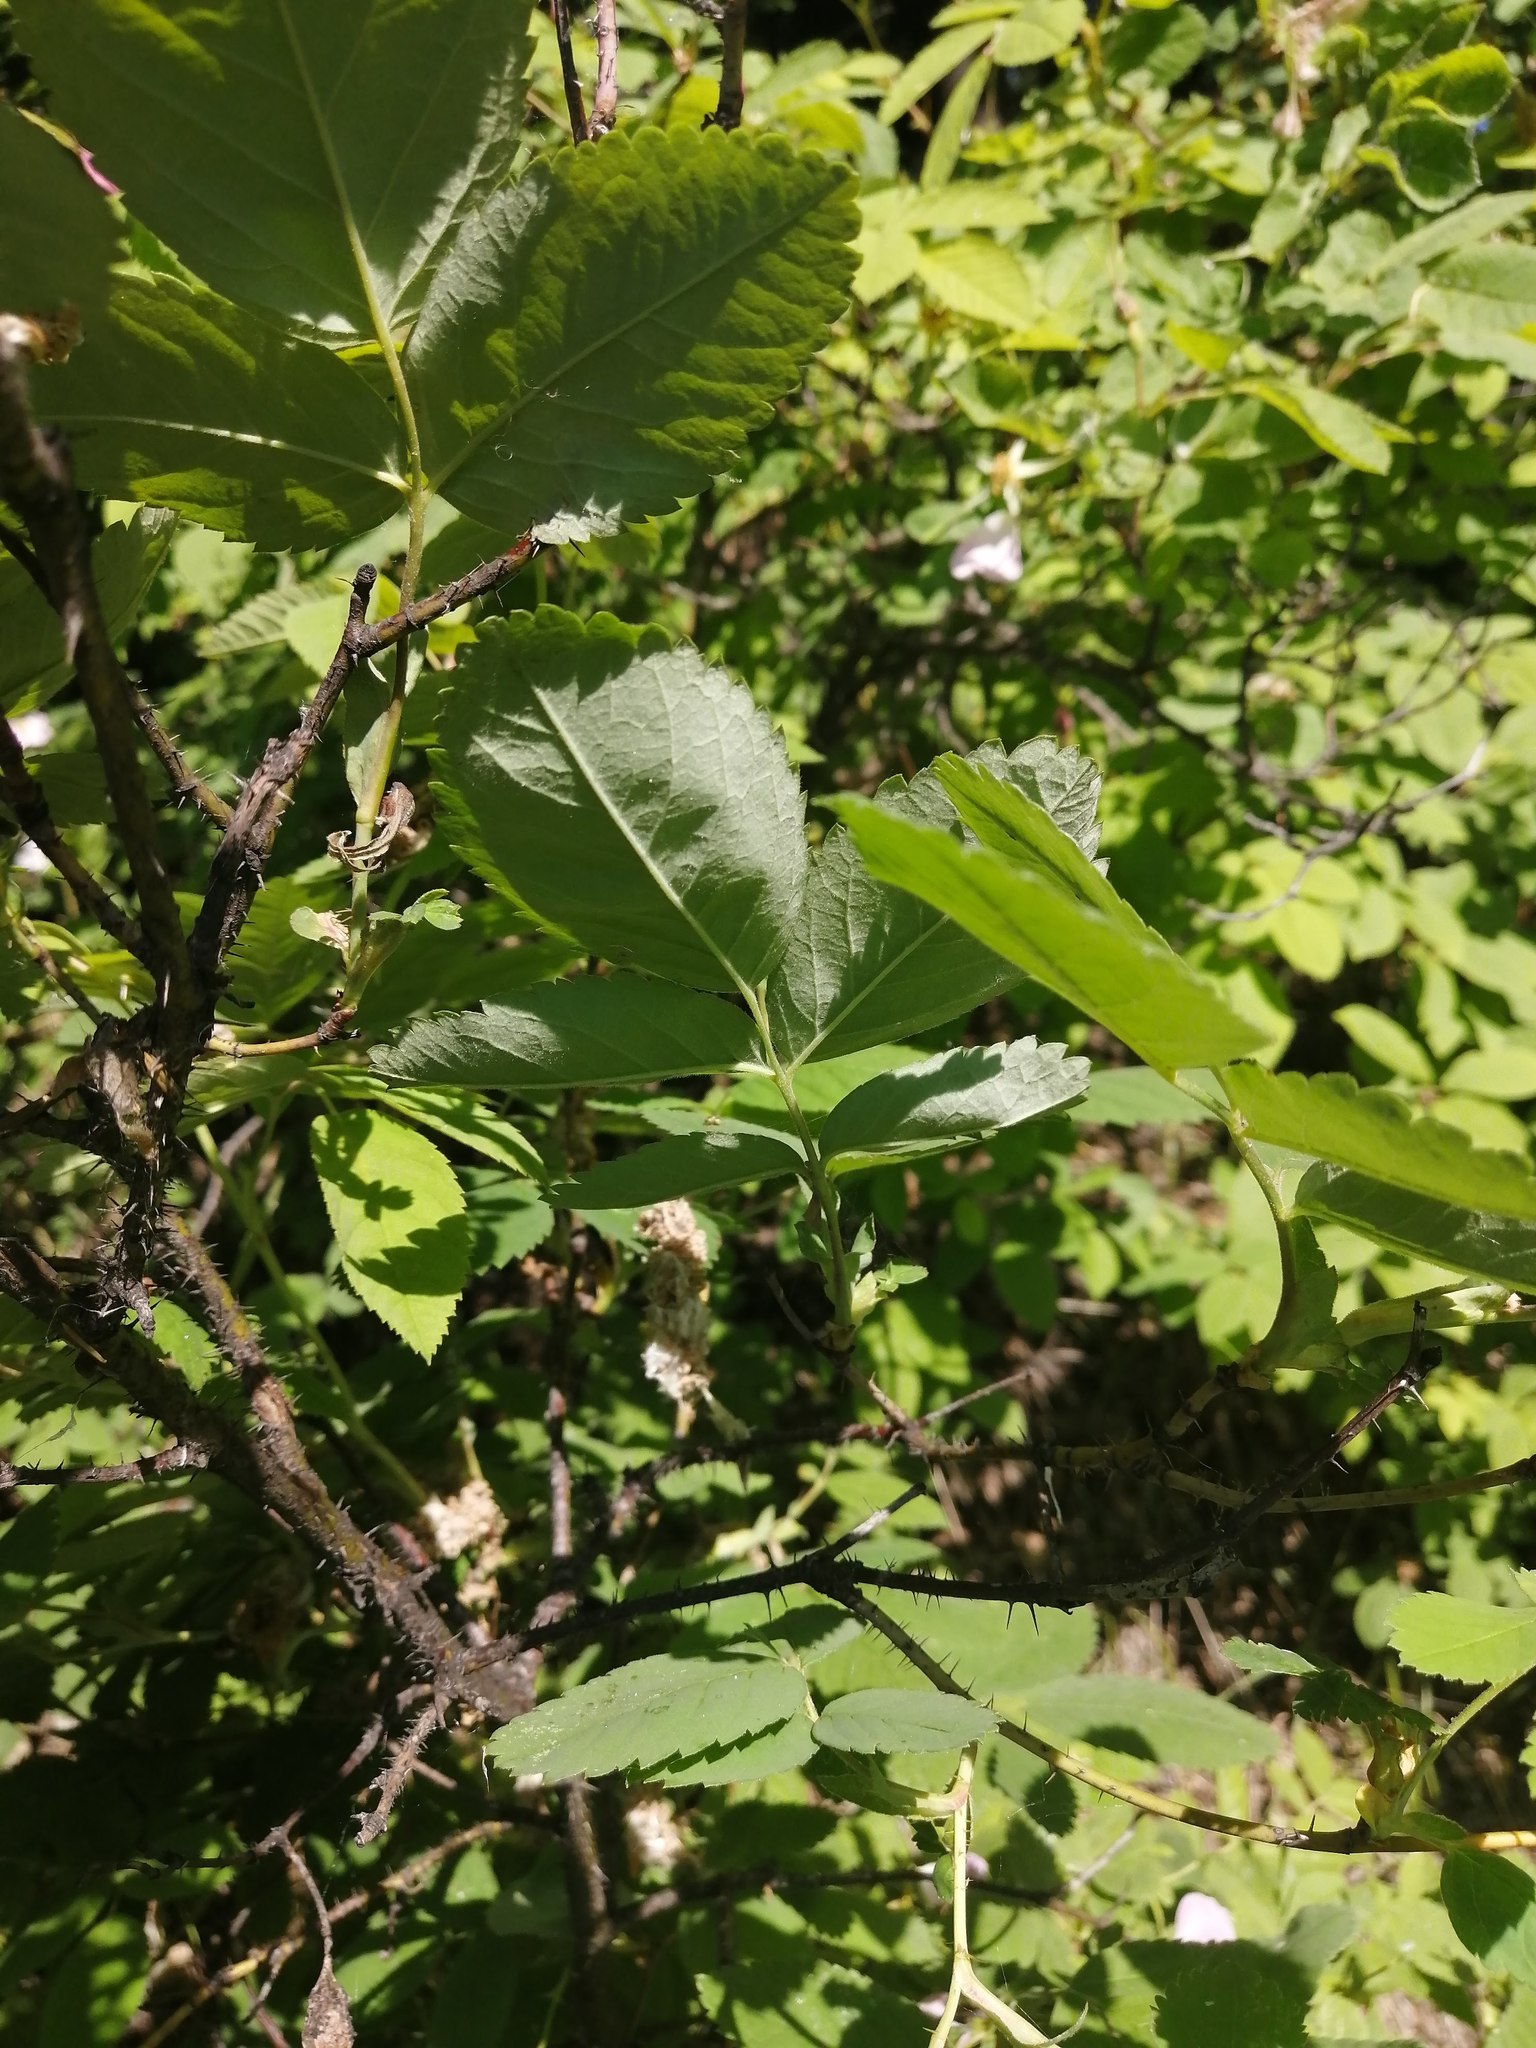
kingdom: Plantae
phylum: Tracheophyta
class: Magnoliopsida
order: Rosales
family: Rosaceae
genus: Rosa
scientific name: Rosa acicularis
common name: Prickly rose
